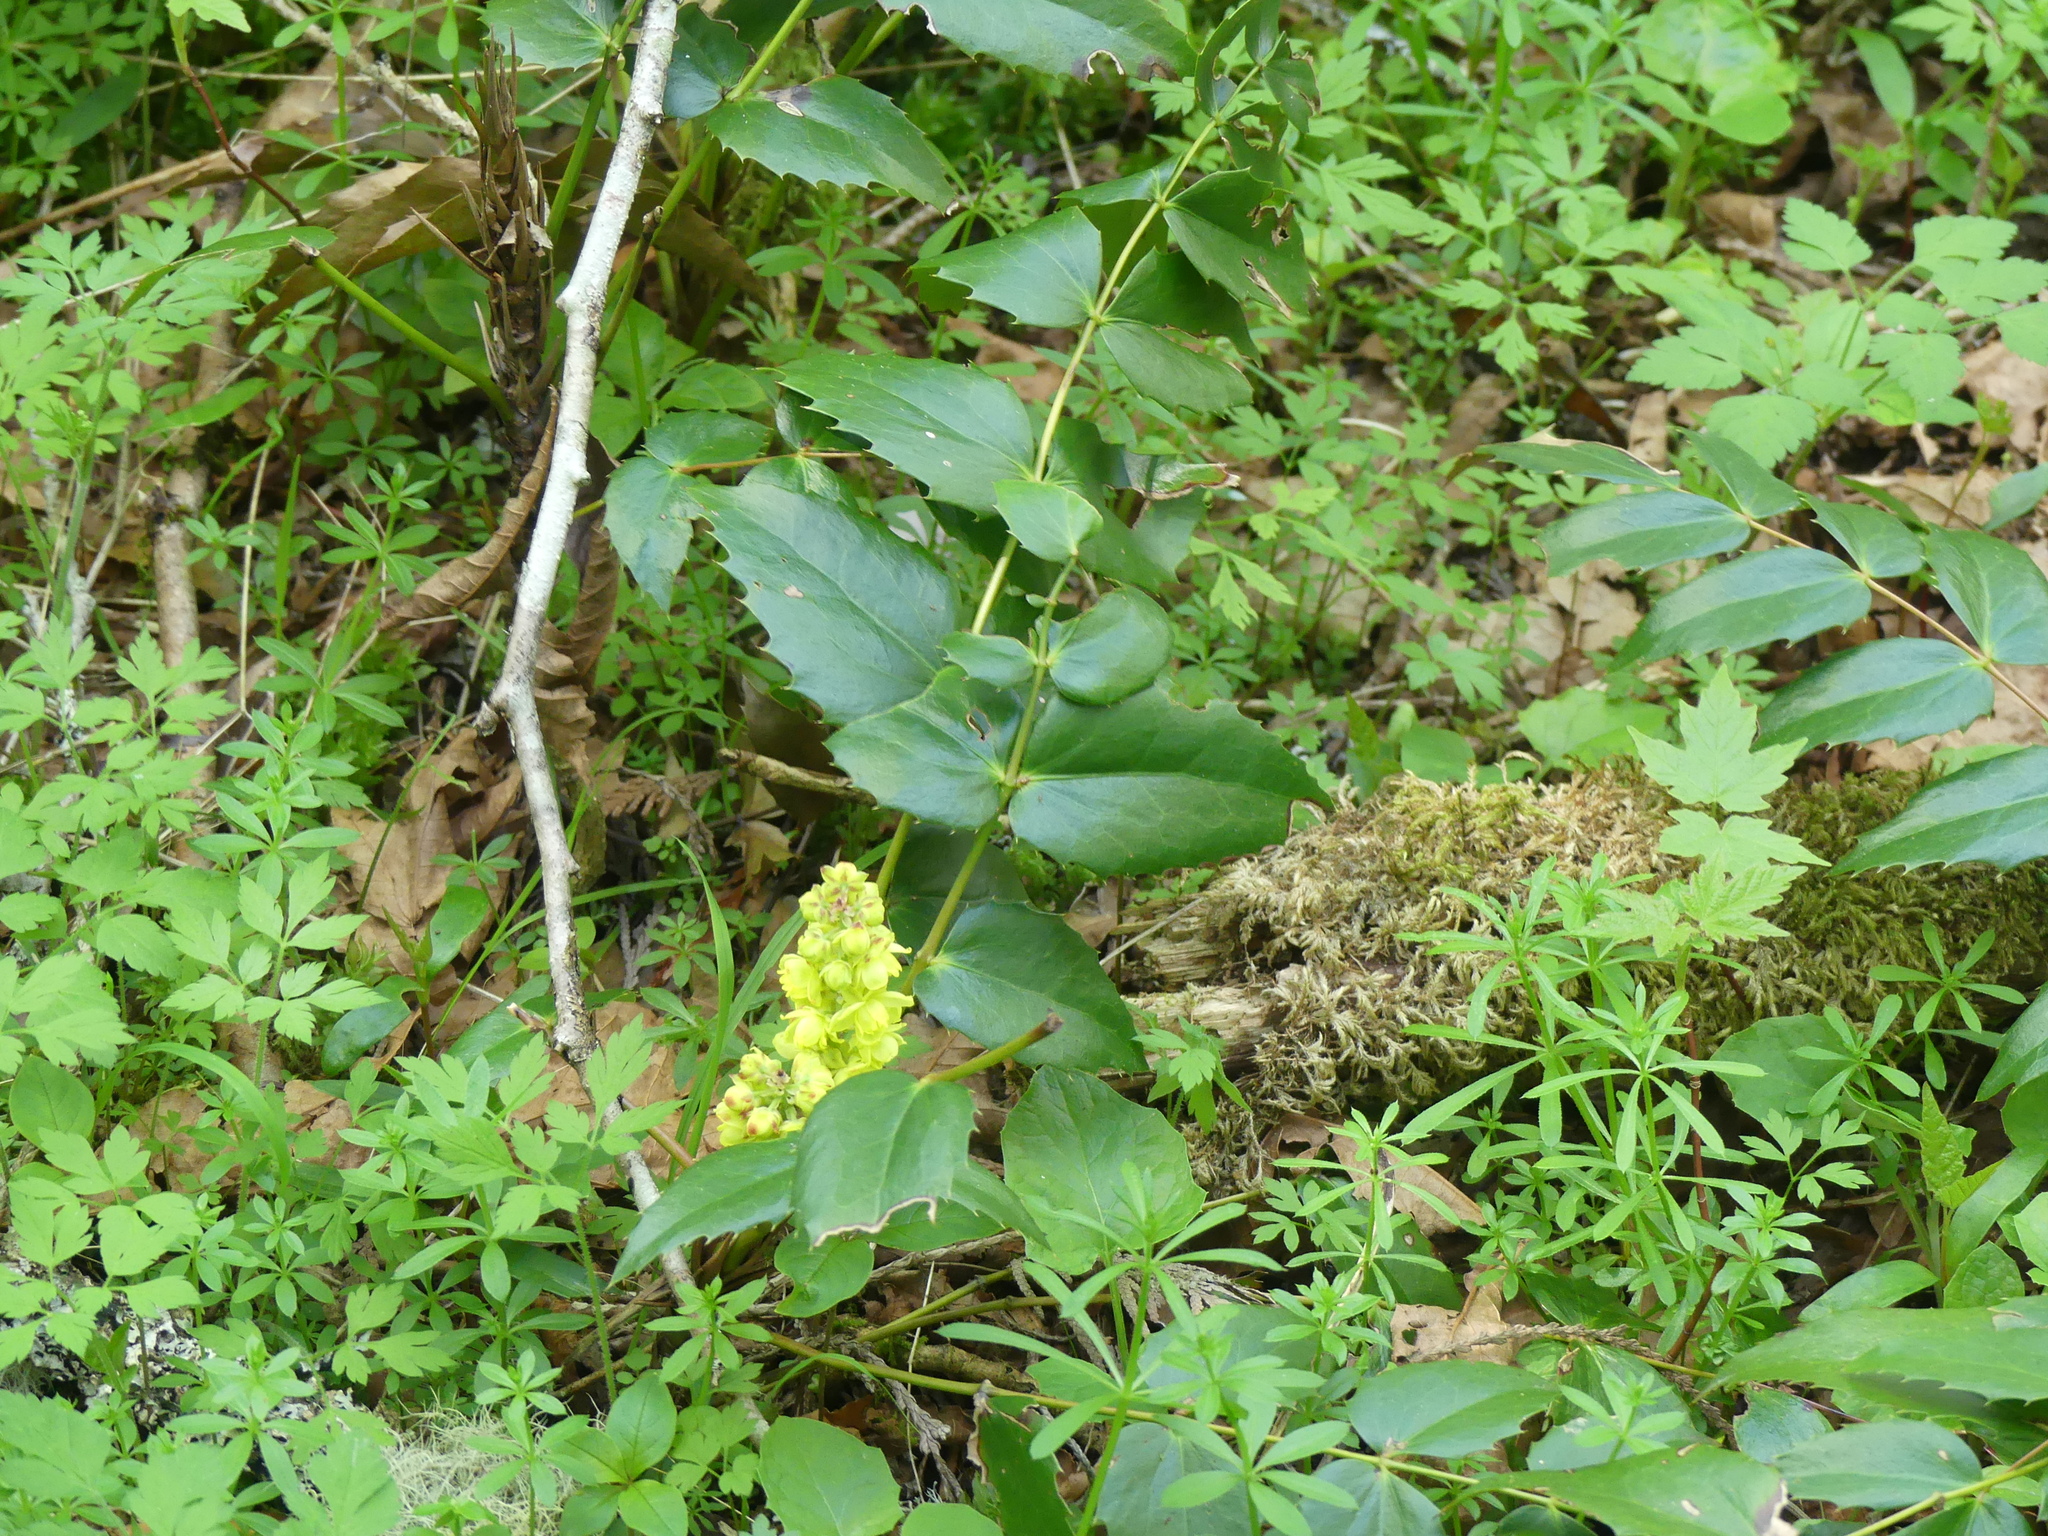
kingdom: Plantae
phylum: Tracheophyta
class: Magnoliopsida
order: Ranunculales
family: Berberidaceae
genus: Mahonia
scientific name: Mahonia nervosa
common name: Cascade oregon-grape
